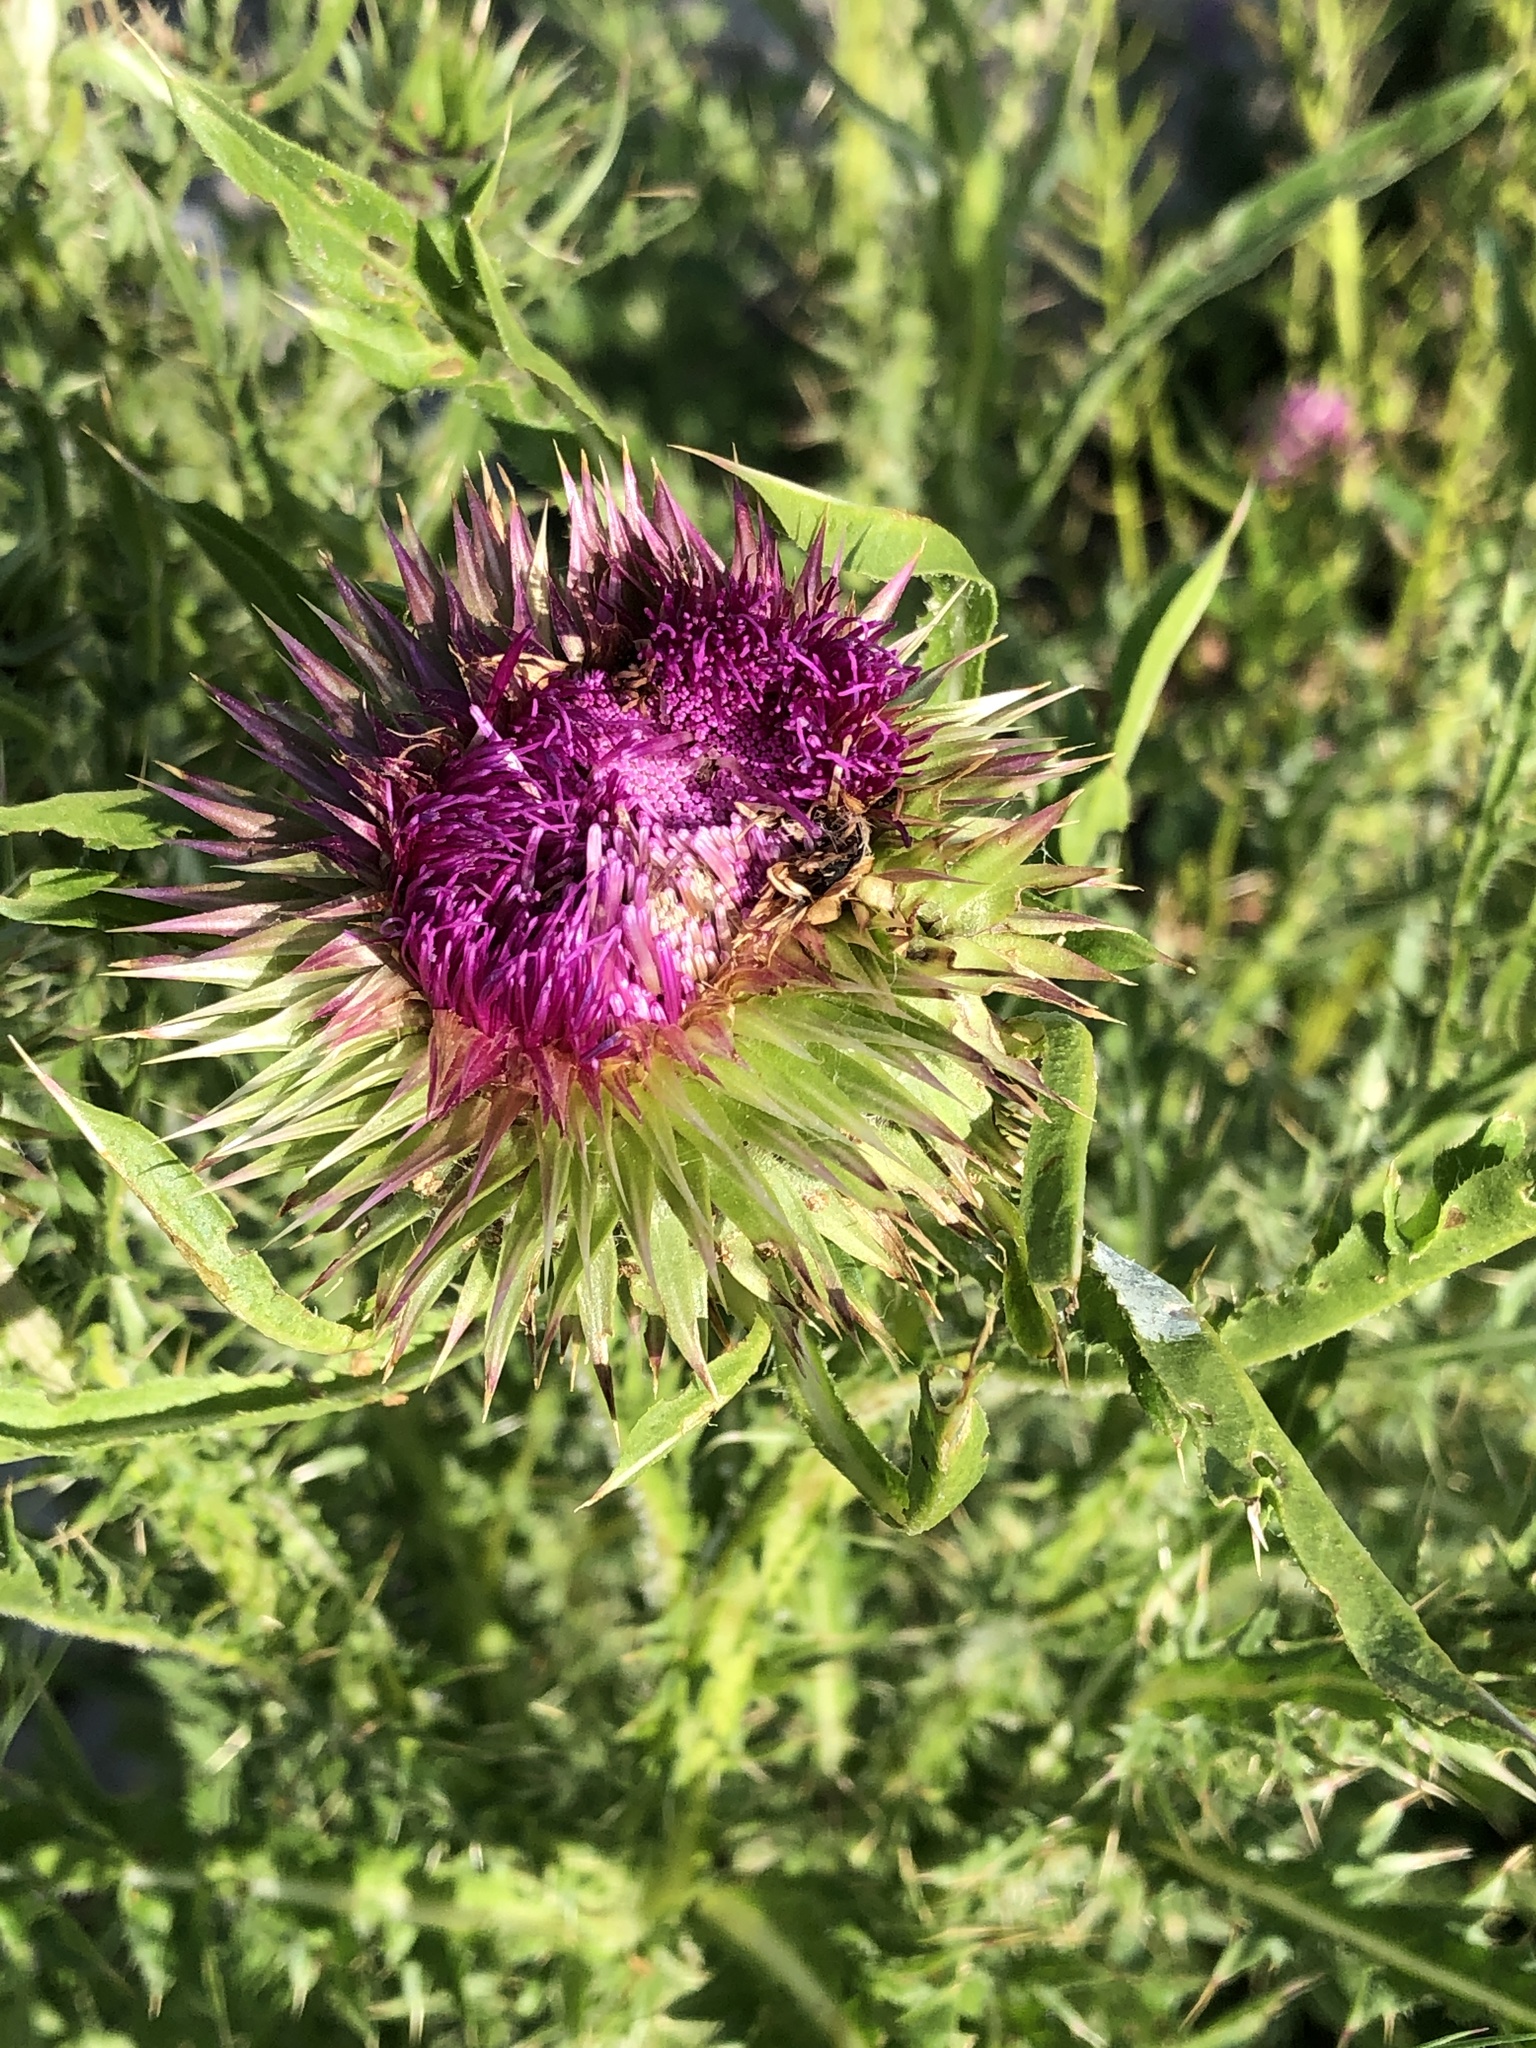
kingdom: Plantae
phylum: Tracheophyta
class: Magnoliopsida
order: Asterales
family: Asteraceae
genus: Carduus
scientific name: Carduus nutans
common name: Musk thistle
